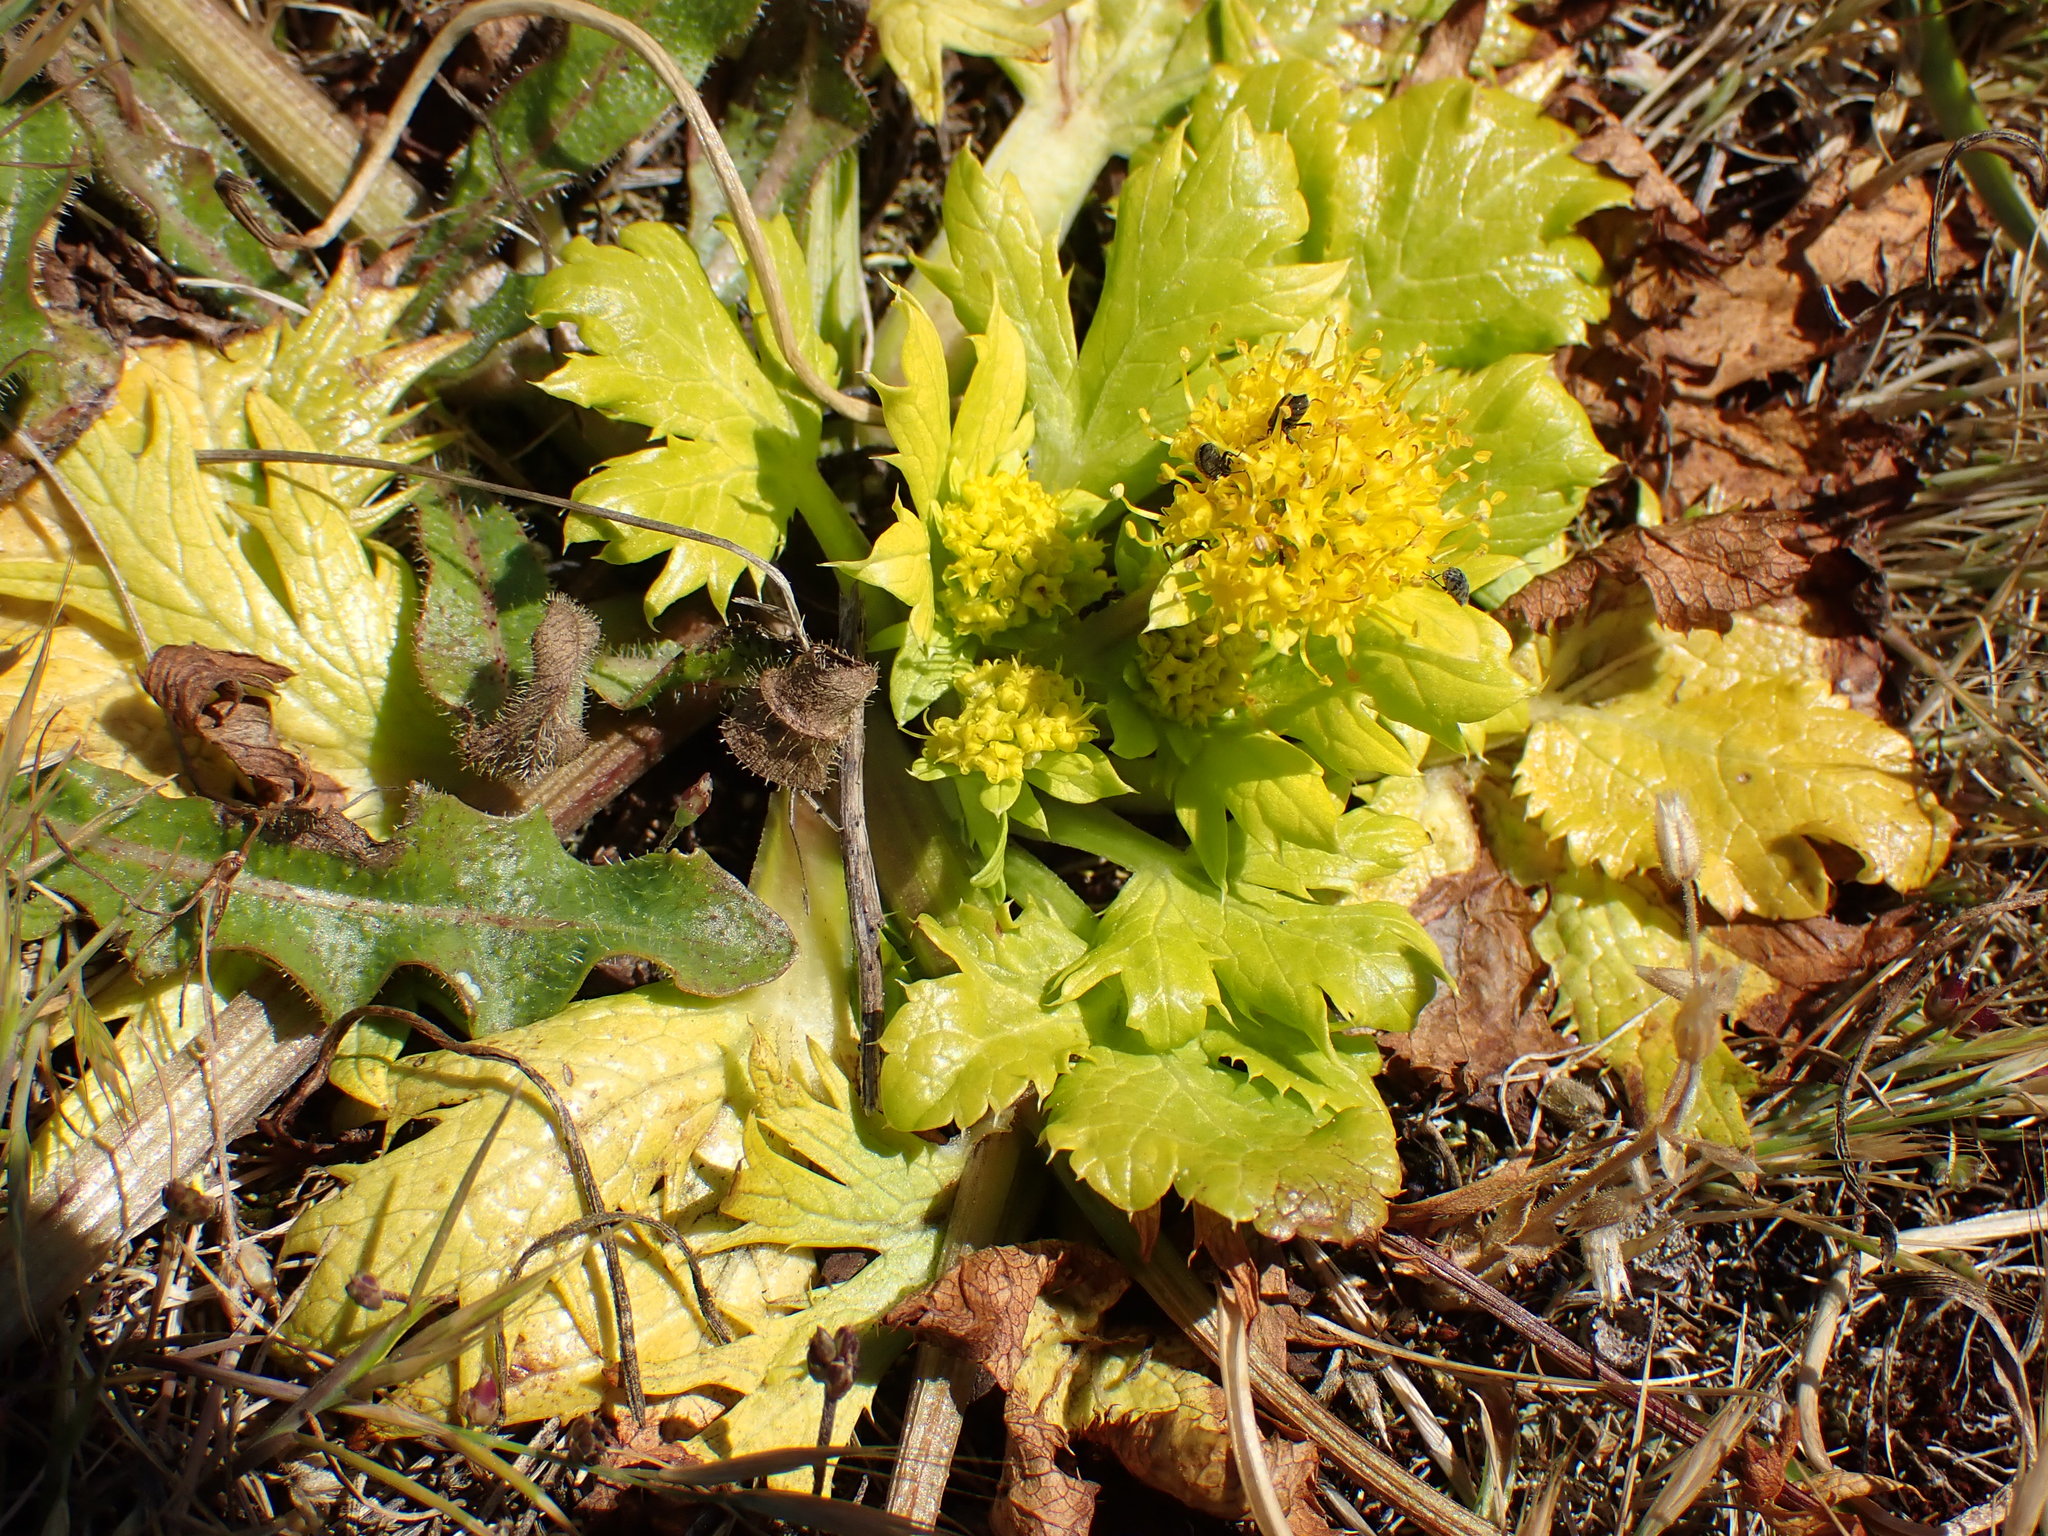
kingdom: Plantae
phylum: Tracheophyta
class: Magnoliopsida
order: Apiales
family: Apiaceae
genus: Sanicula
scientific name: Sanicula arctopoides
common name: Footsteps-of-spring
